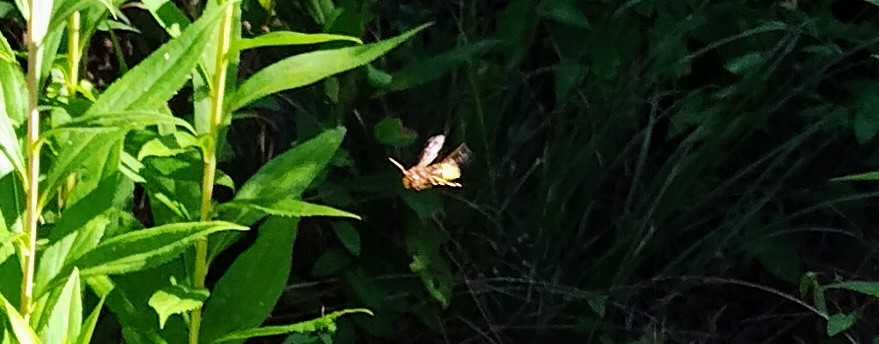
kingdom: Animalia
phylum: Arthropoda
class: Insecta
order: Hymenoptera
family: Vespidae
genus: Vespa
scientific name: Vespa crabro
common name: Hornet
